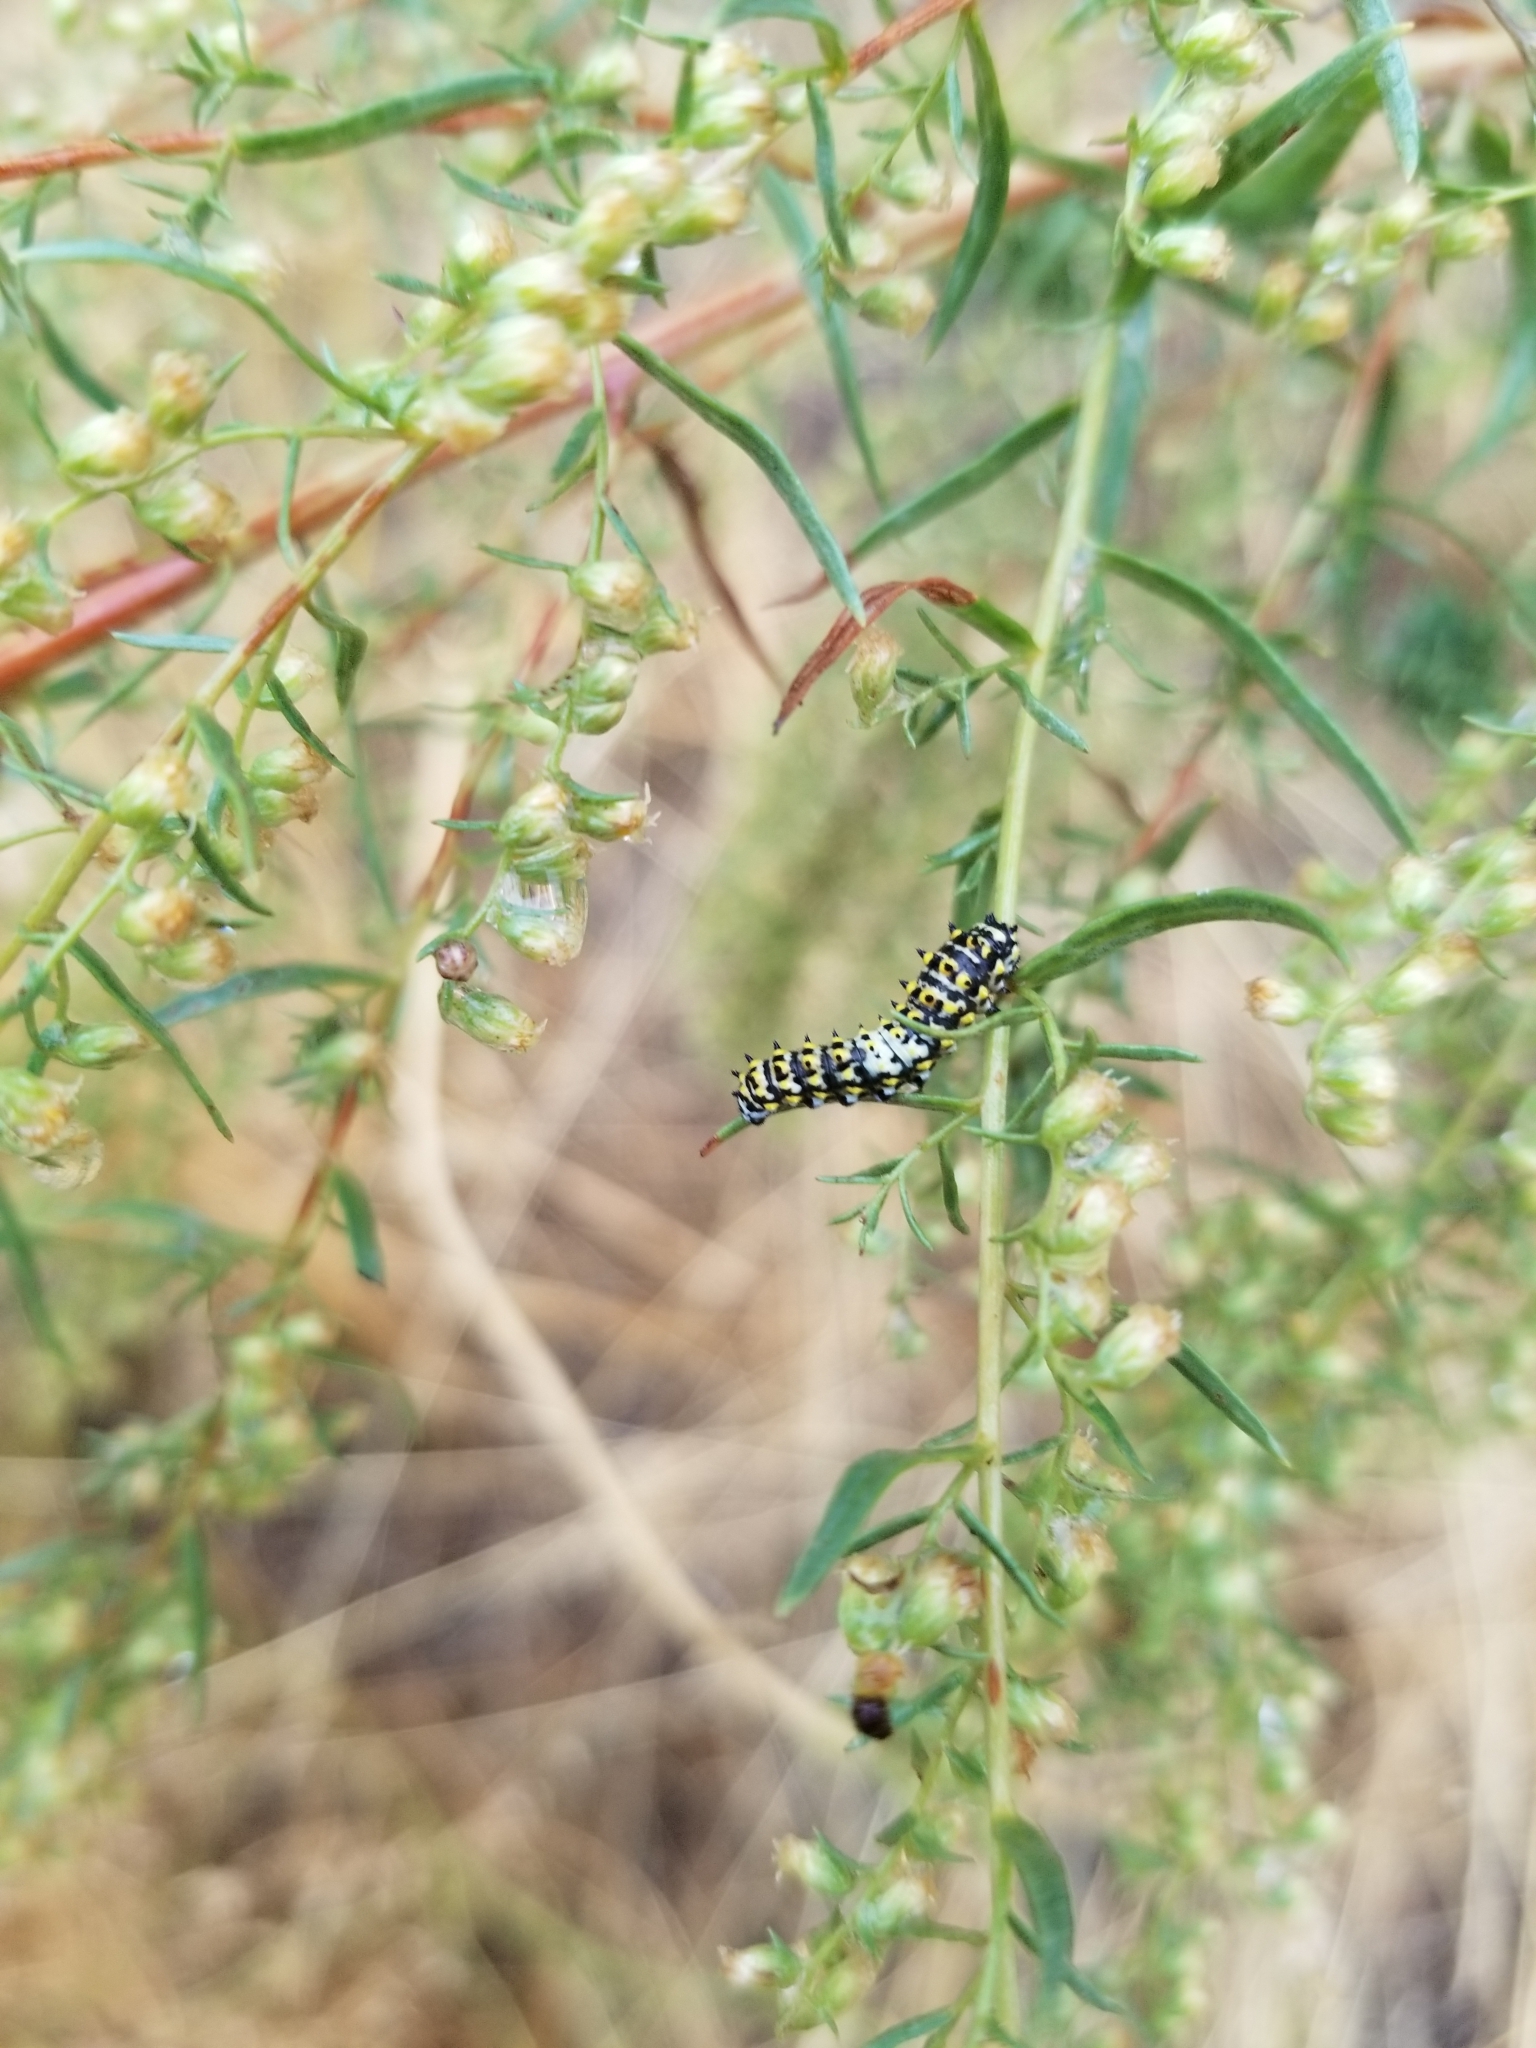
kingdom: Animalia
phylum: Arthropoda
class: Insecta
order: Lepidoptera
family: Papilionidae
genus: Papilio
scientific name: Papilio
